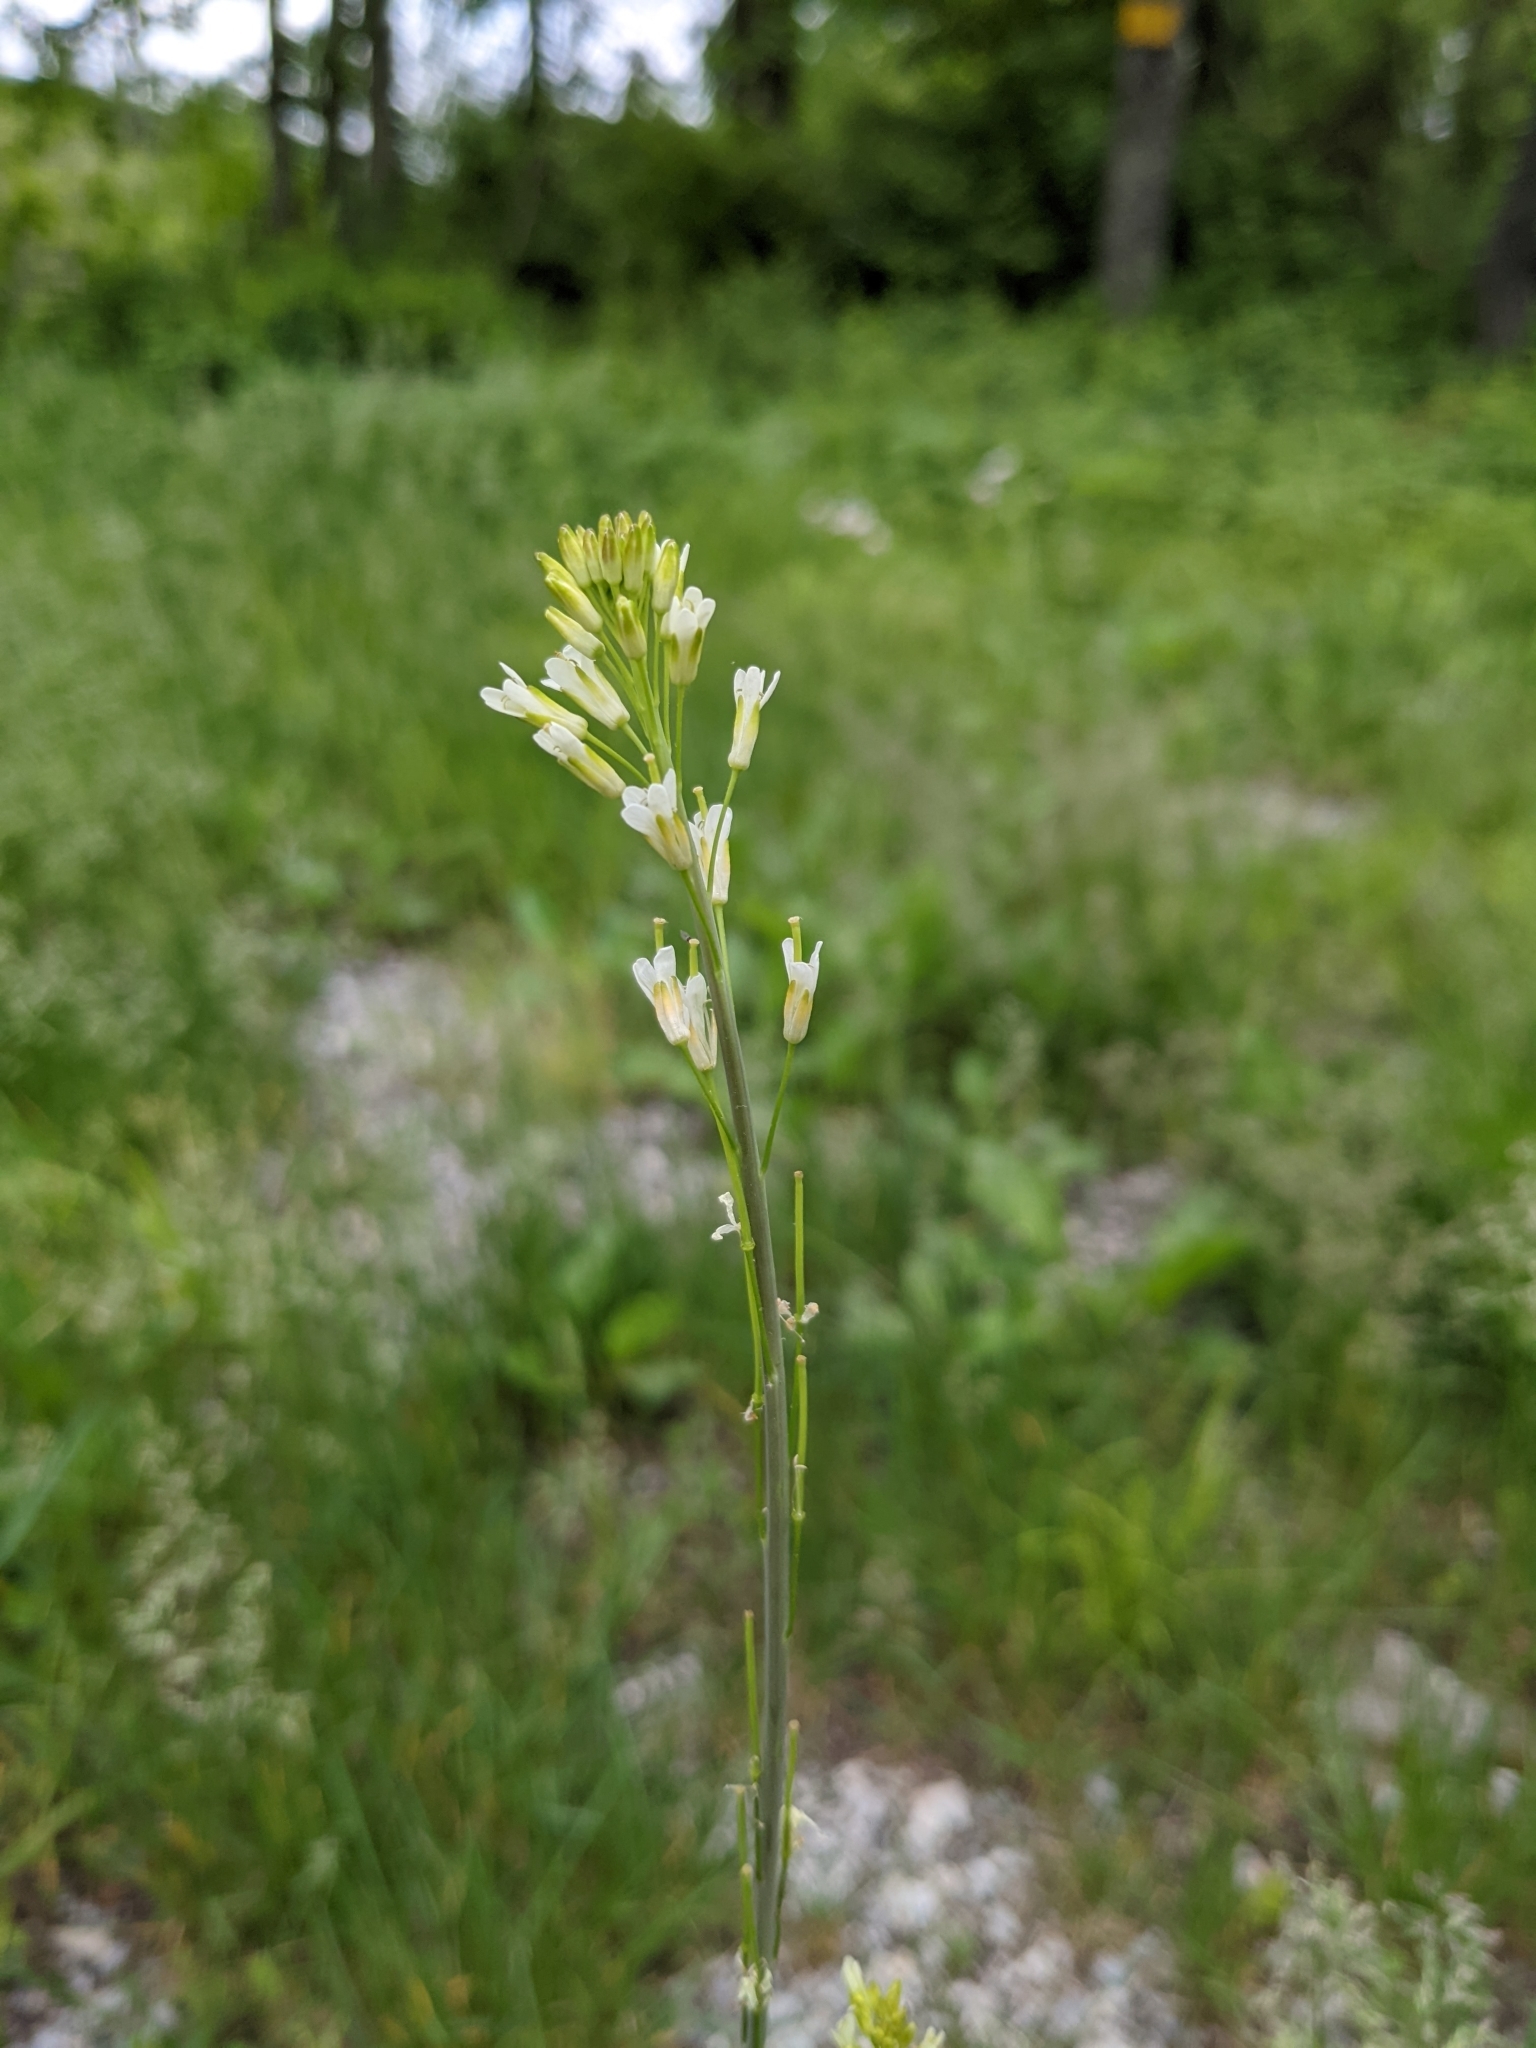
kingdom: Plantae
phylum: Tracheophyta
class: Magnoliopsida
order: Brassicales
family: Brassicaceae
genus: Turritis
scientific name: Turritis glabra
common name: Tower rockcress
